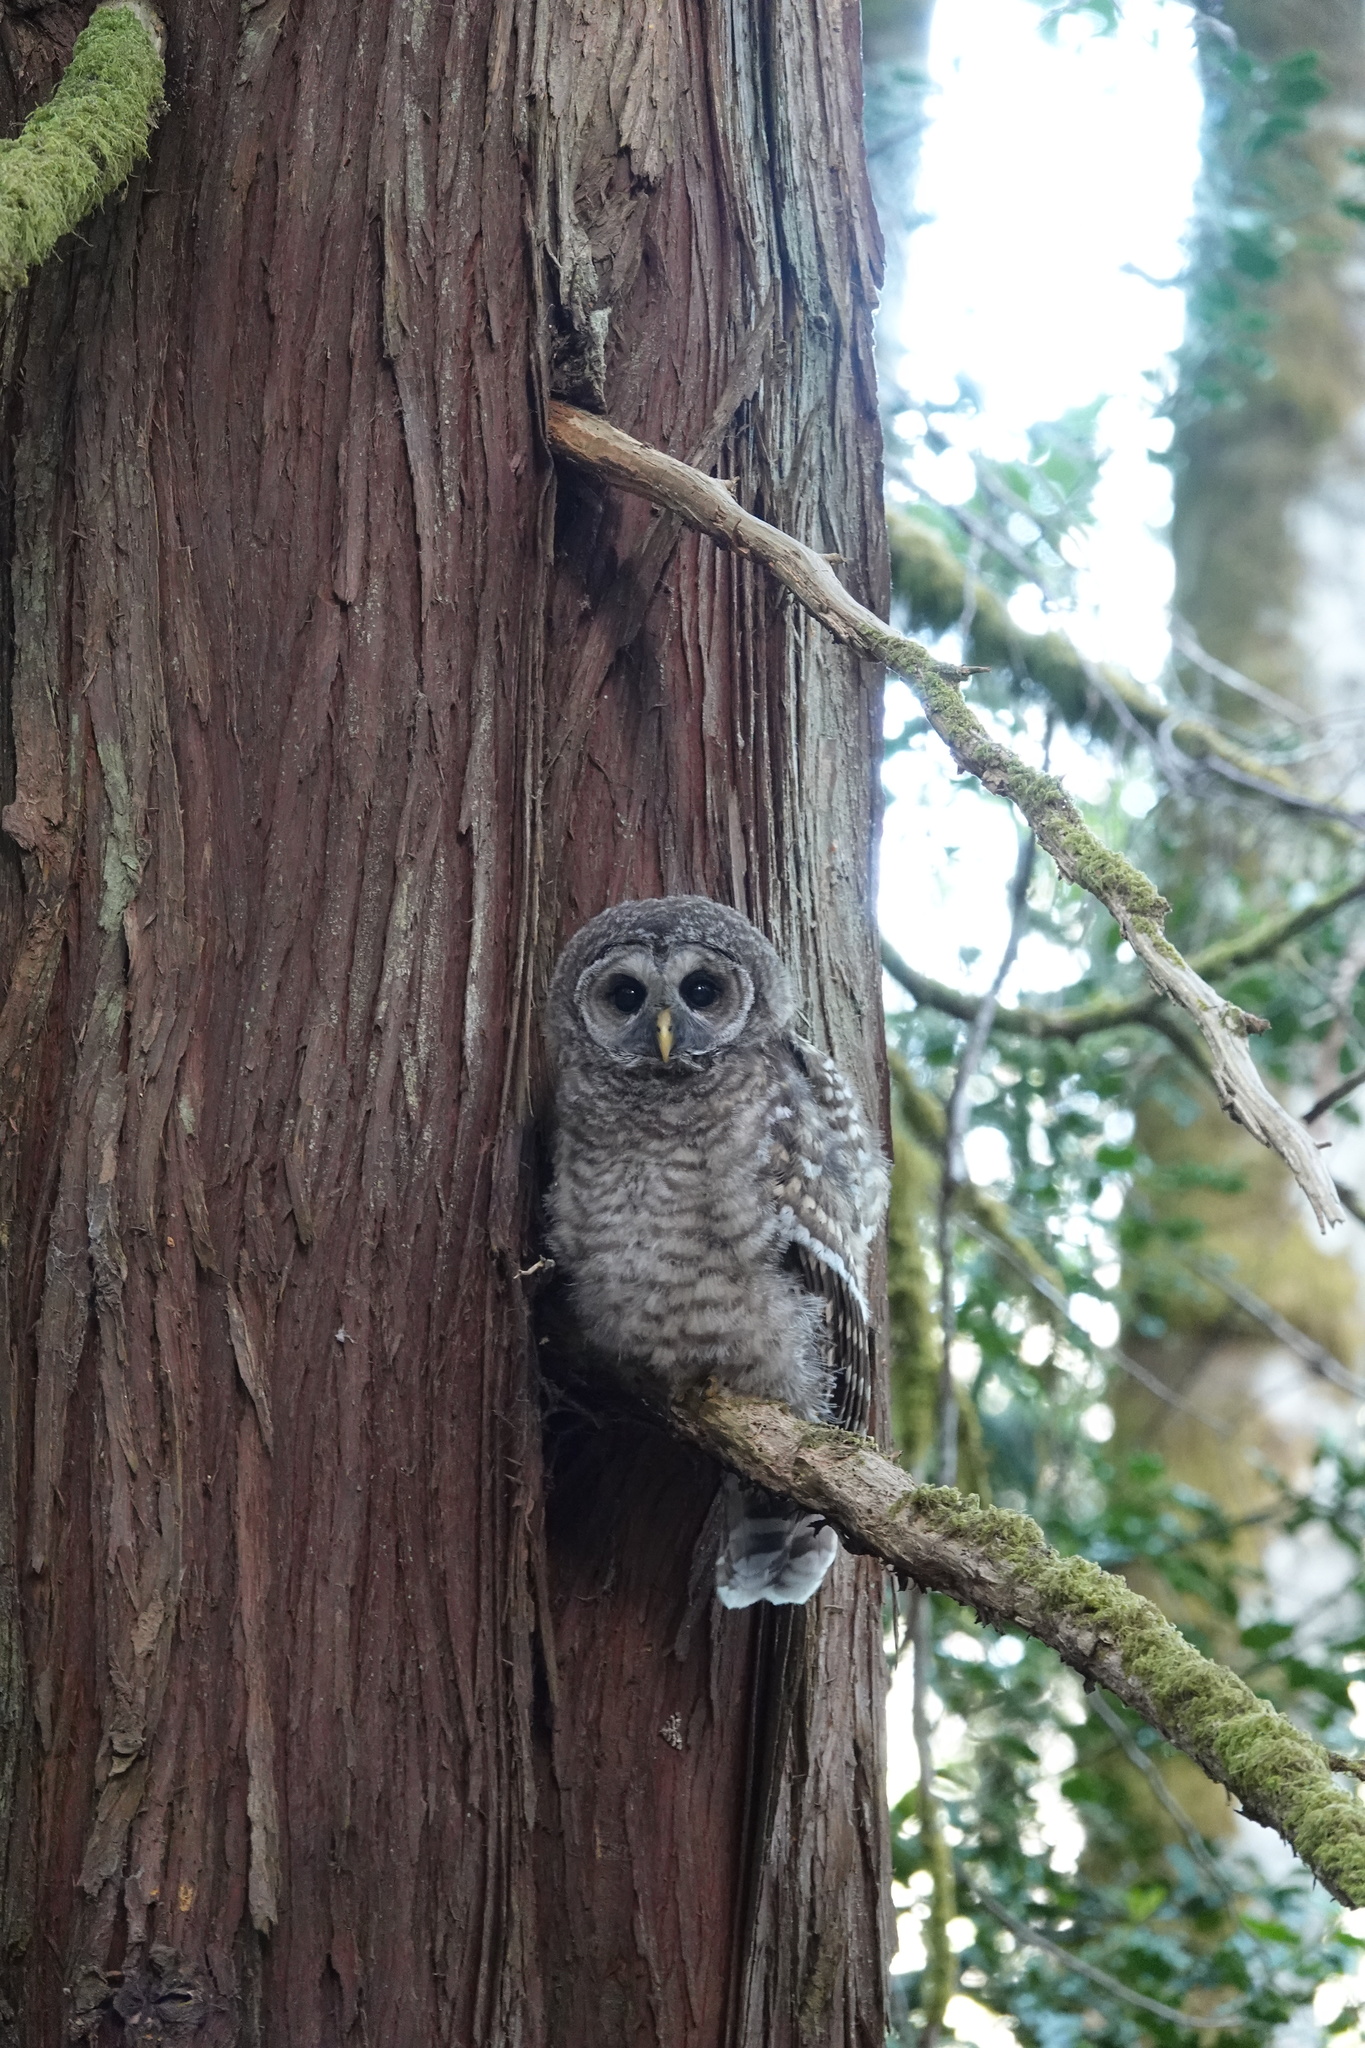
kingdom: Animalia
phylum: Chordata
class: Aves
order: Strigiformes
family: Strigidae
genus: Strix
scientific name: Strix varia
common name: Barred owl
